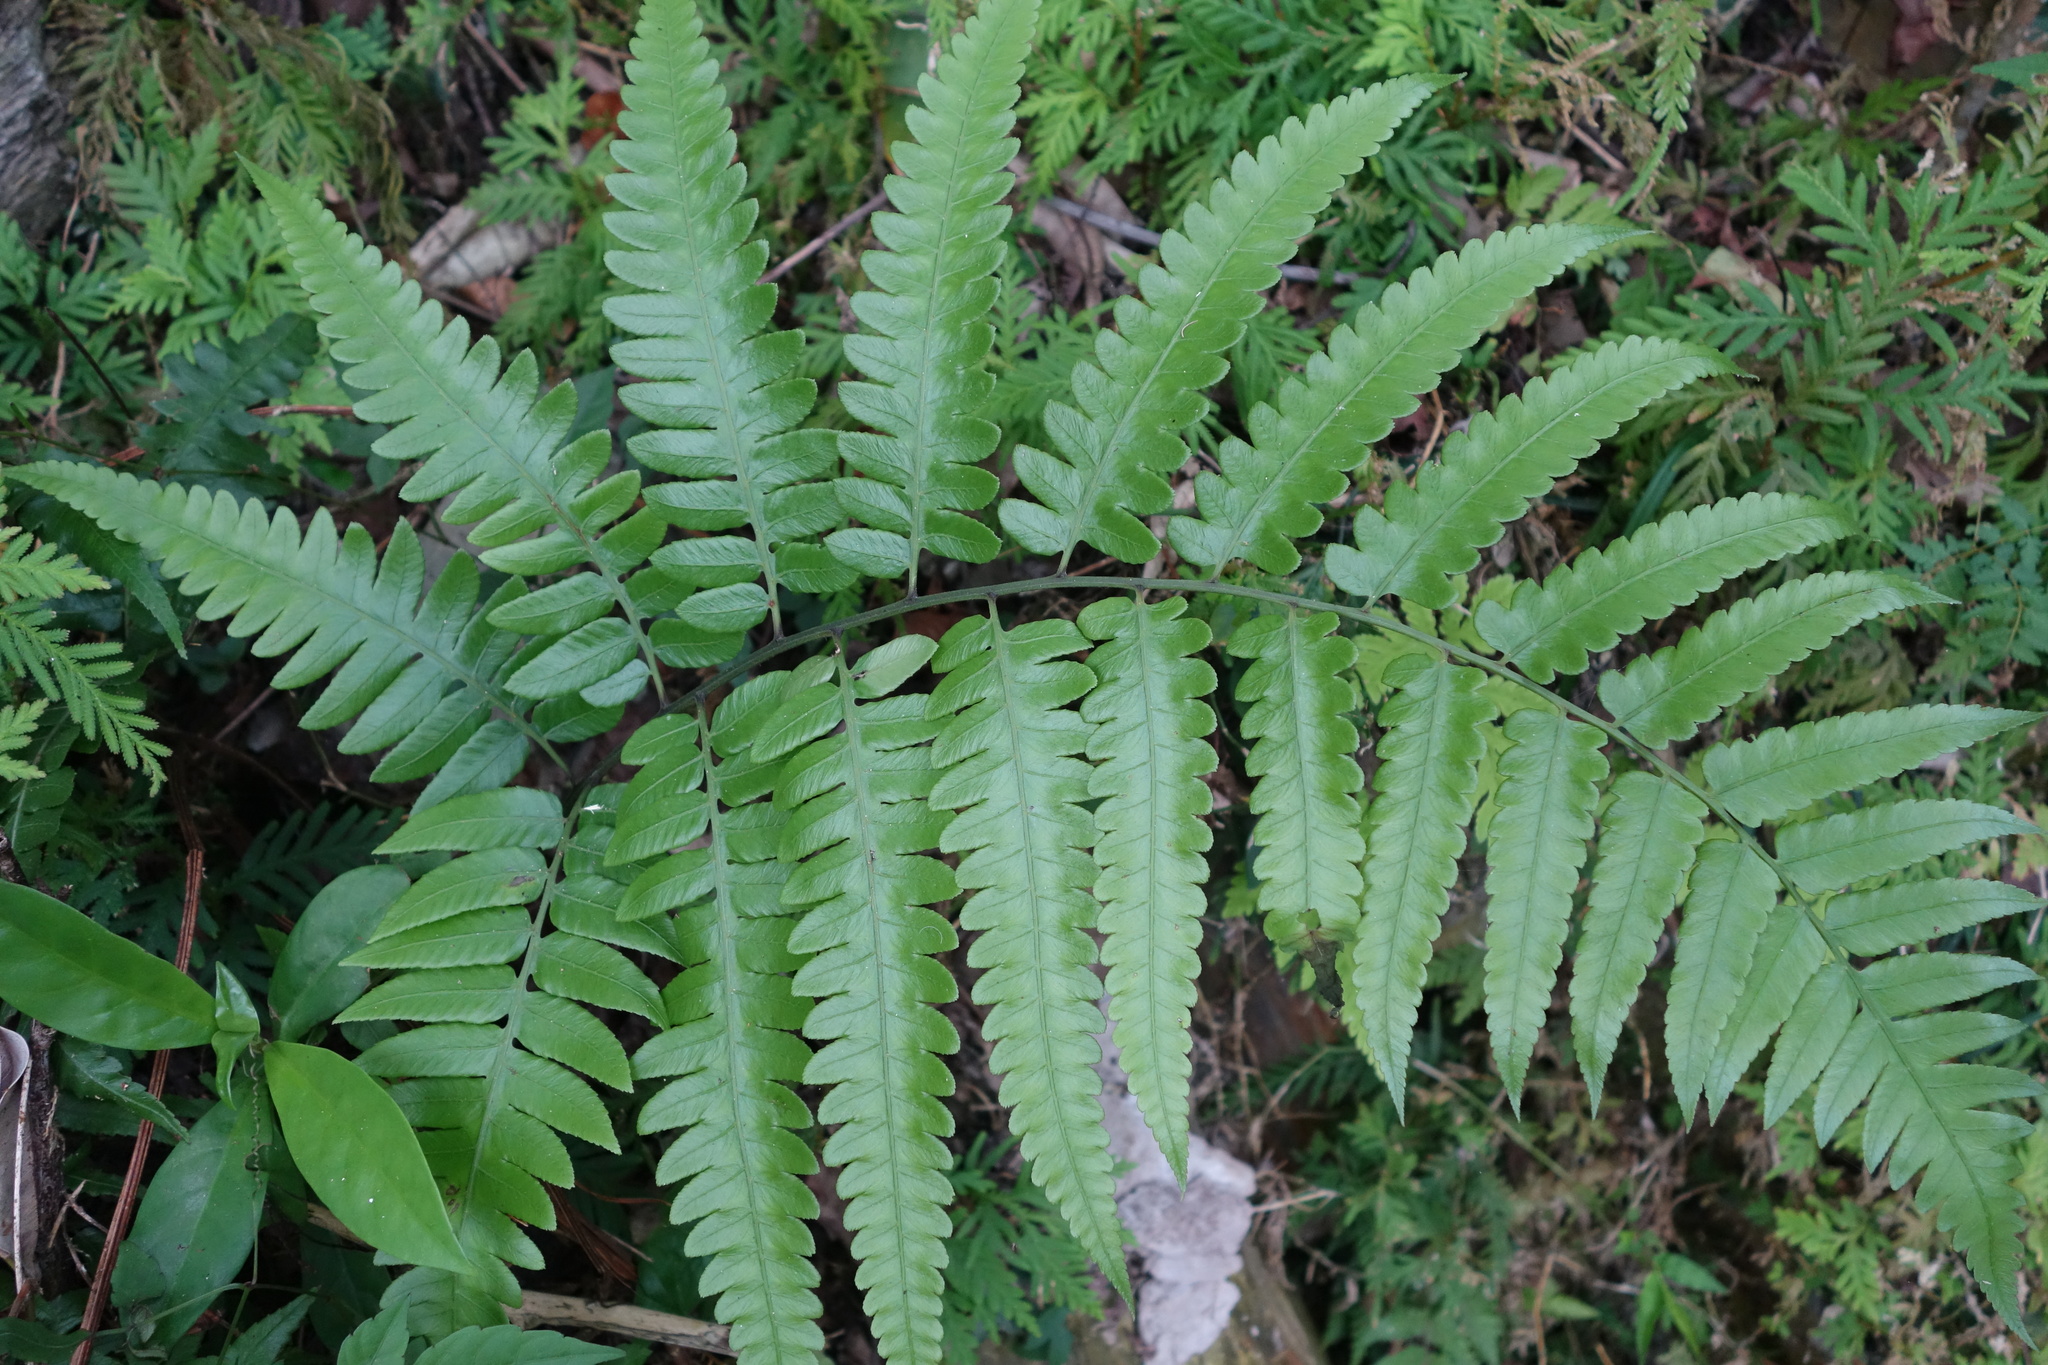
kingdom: Plantae
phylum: Tracheophyta
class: Polypodiopsida
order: Polypodiales
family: Athyriaceae
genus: Diplazium
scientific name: Diplazium dilatatum
